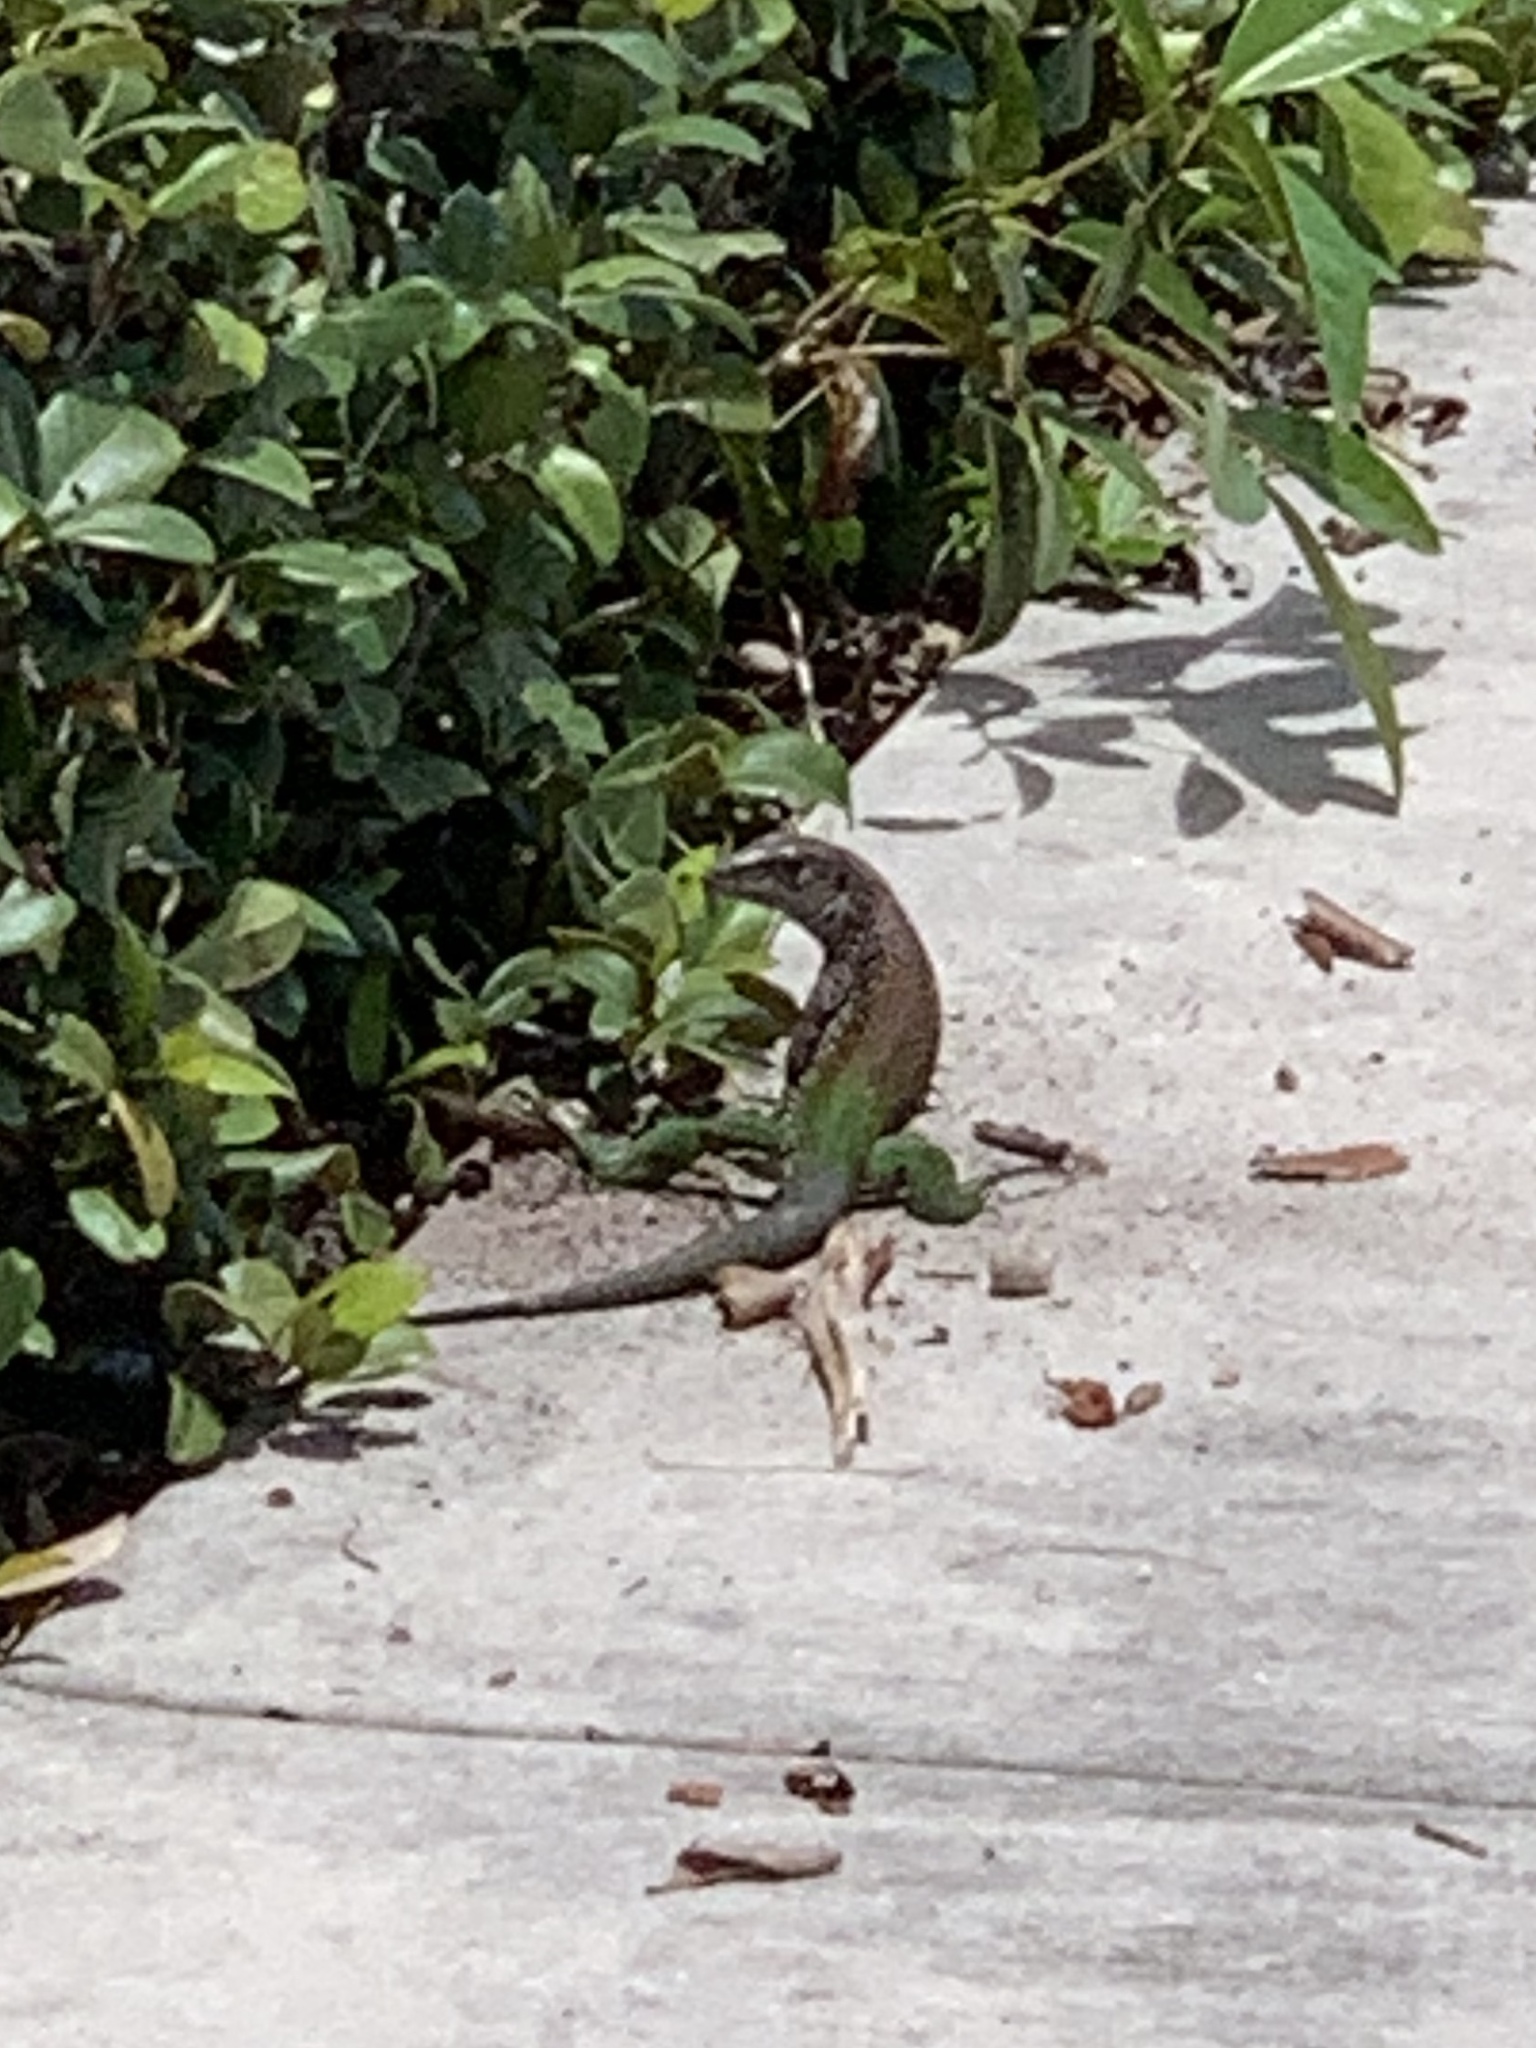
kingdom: Animalia
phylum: Chordata
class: Squamata
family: Teiidae
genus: Ameiva
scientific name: Ameiva ameiva
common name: Giant ameiva
